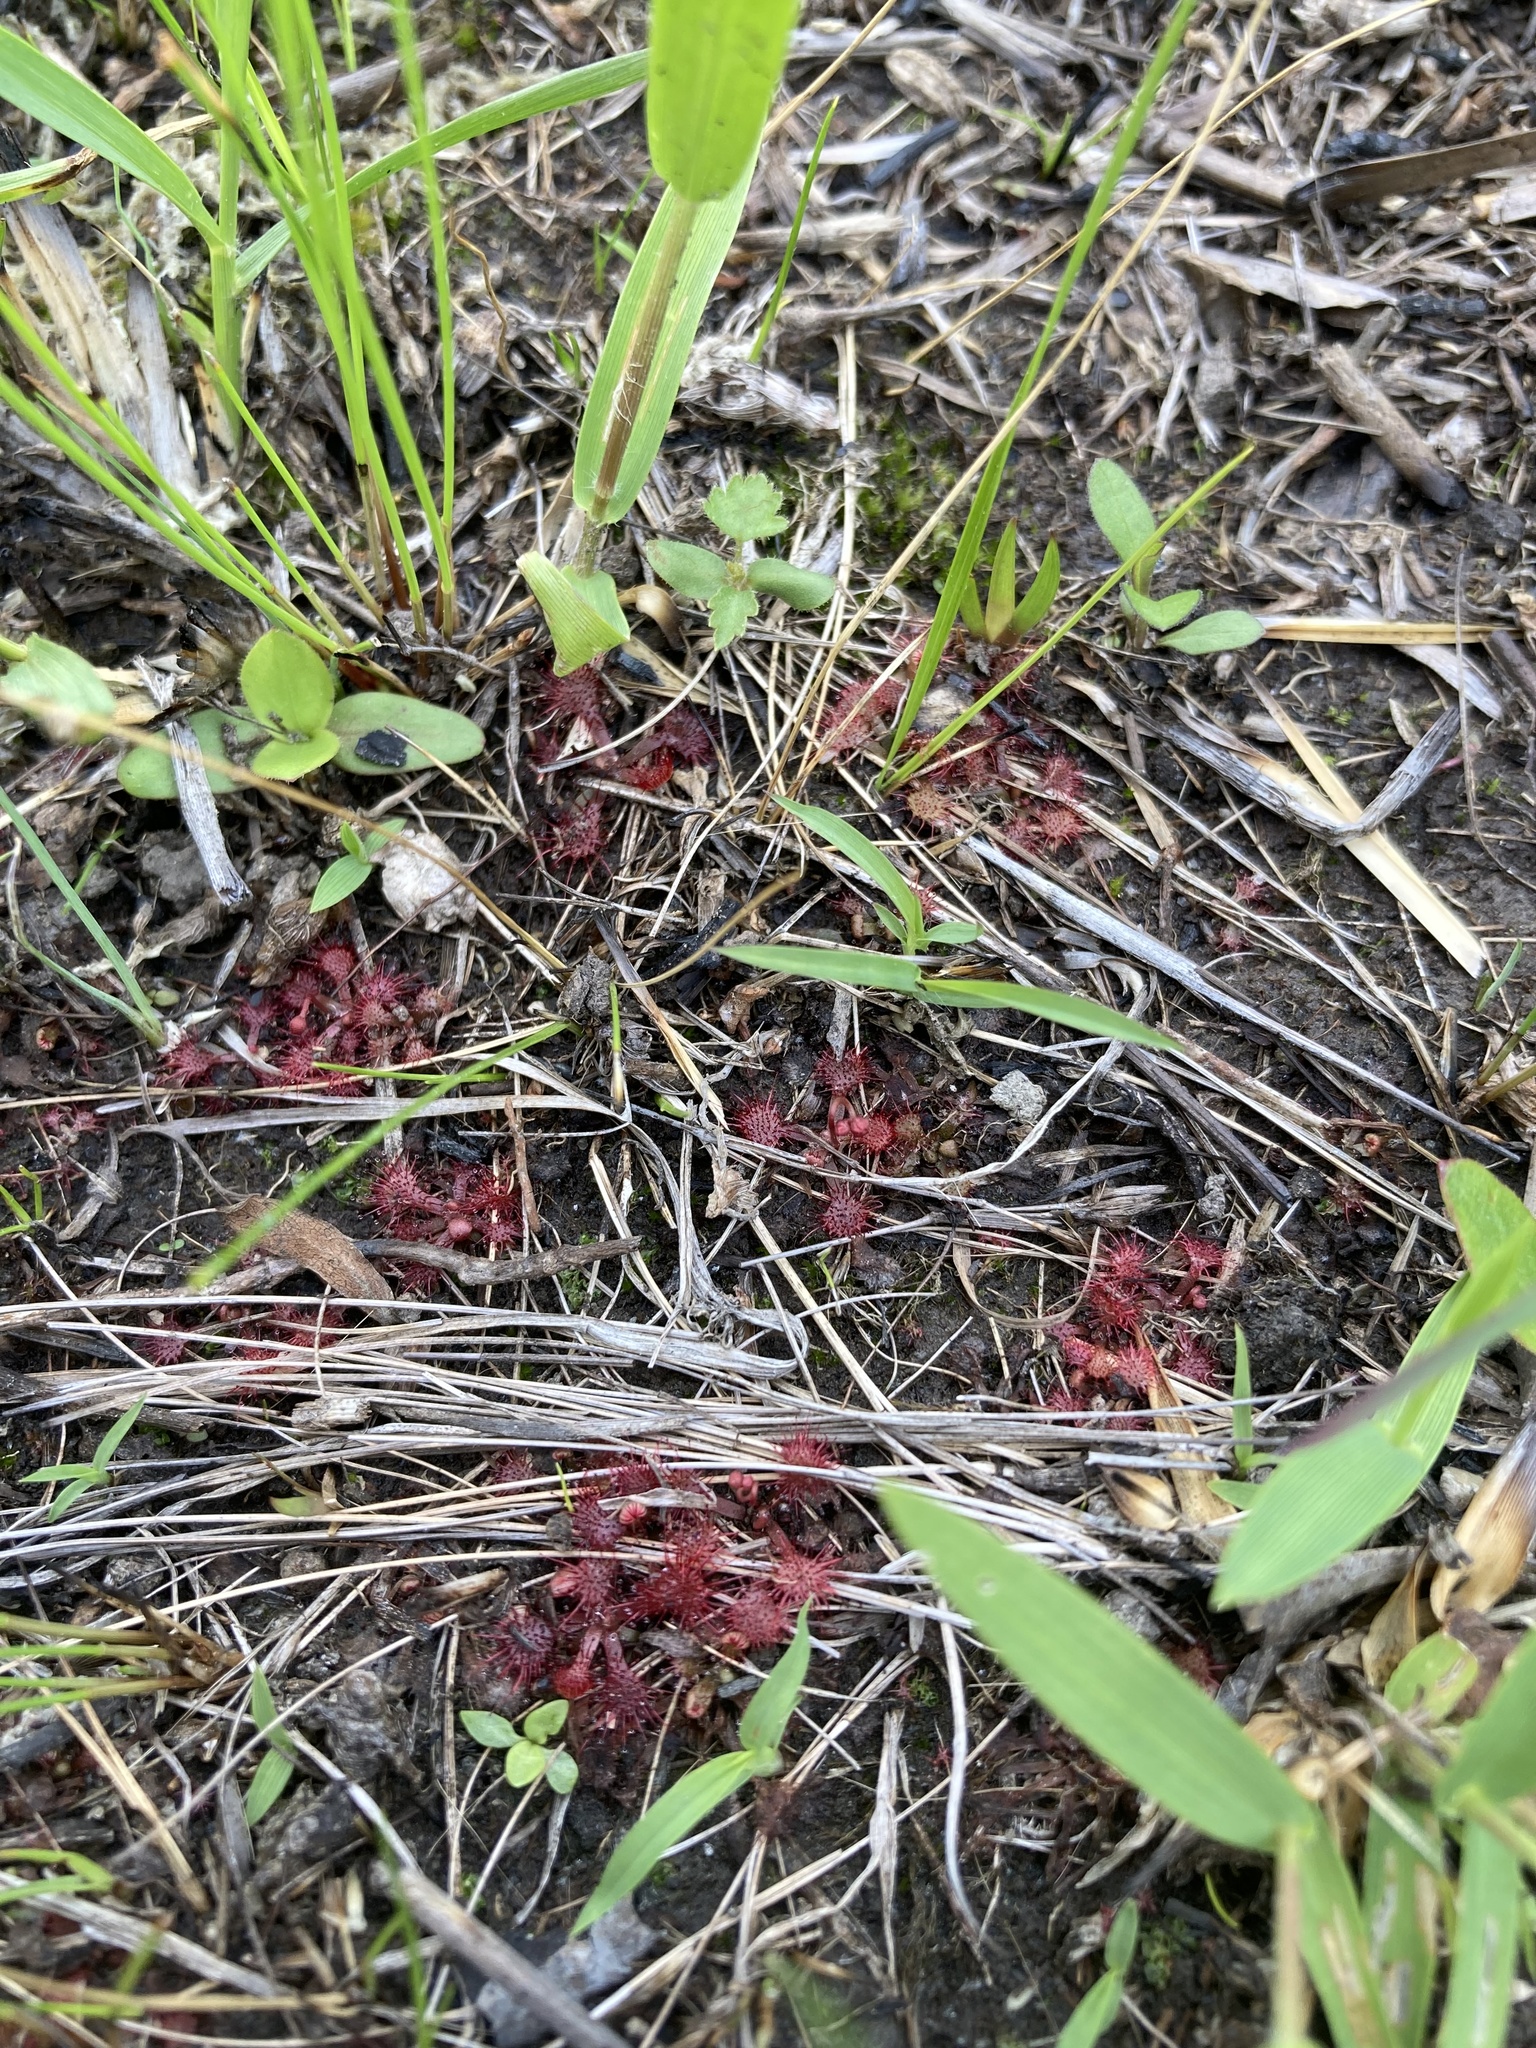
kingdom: Plantae
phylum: Tracheophyta
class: Magnoliopsida
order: Caryophyllales
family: Droseraceae
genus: Drosera
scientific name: Drosera capillaris
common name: Pink sundew
